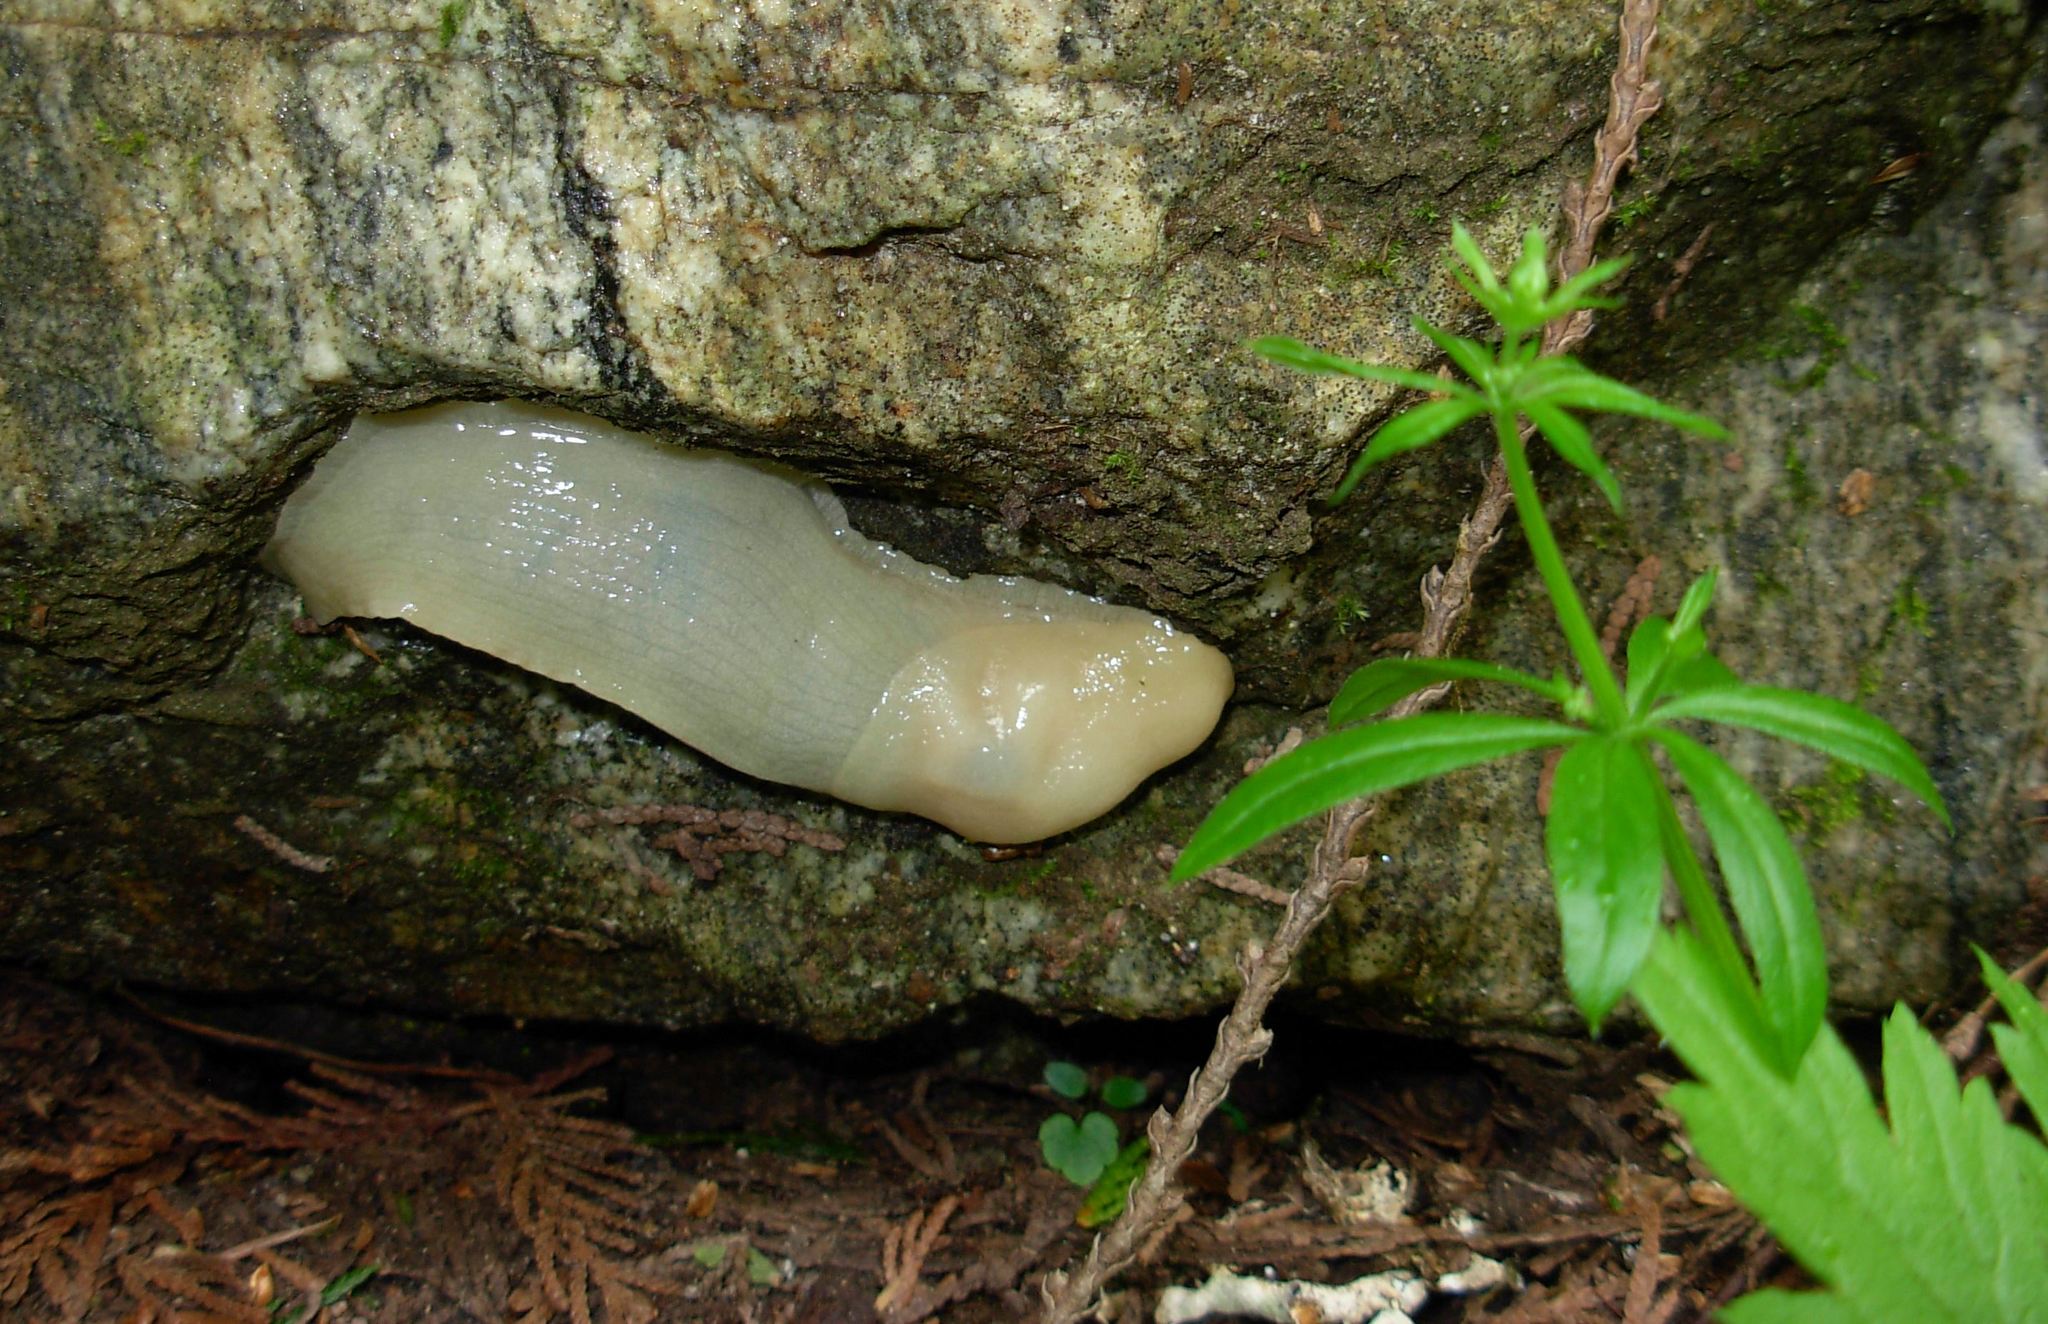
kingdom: Animalia
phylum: Mollusca
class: Gastropoda
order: Stylommatophora
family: Ariolimacidae
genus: Ariolimax
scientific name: Ariolimax columbianus
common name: Pacific banana slug
